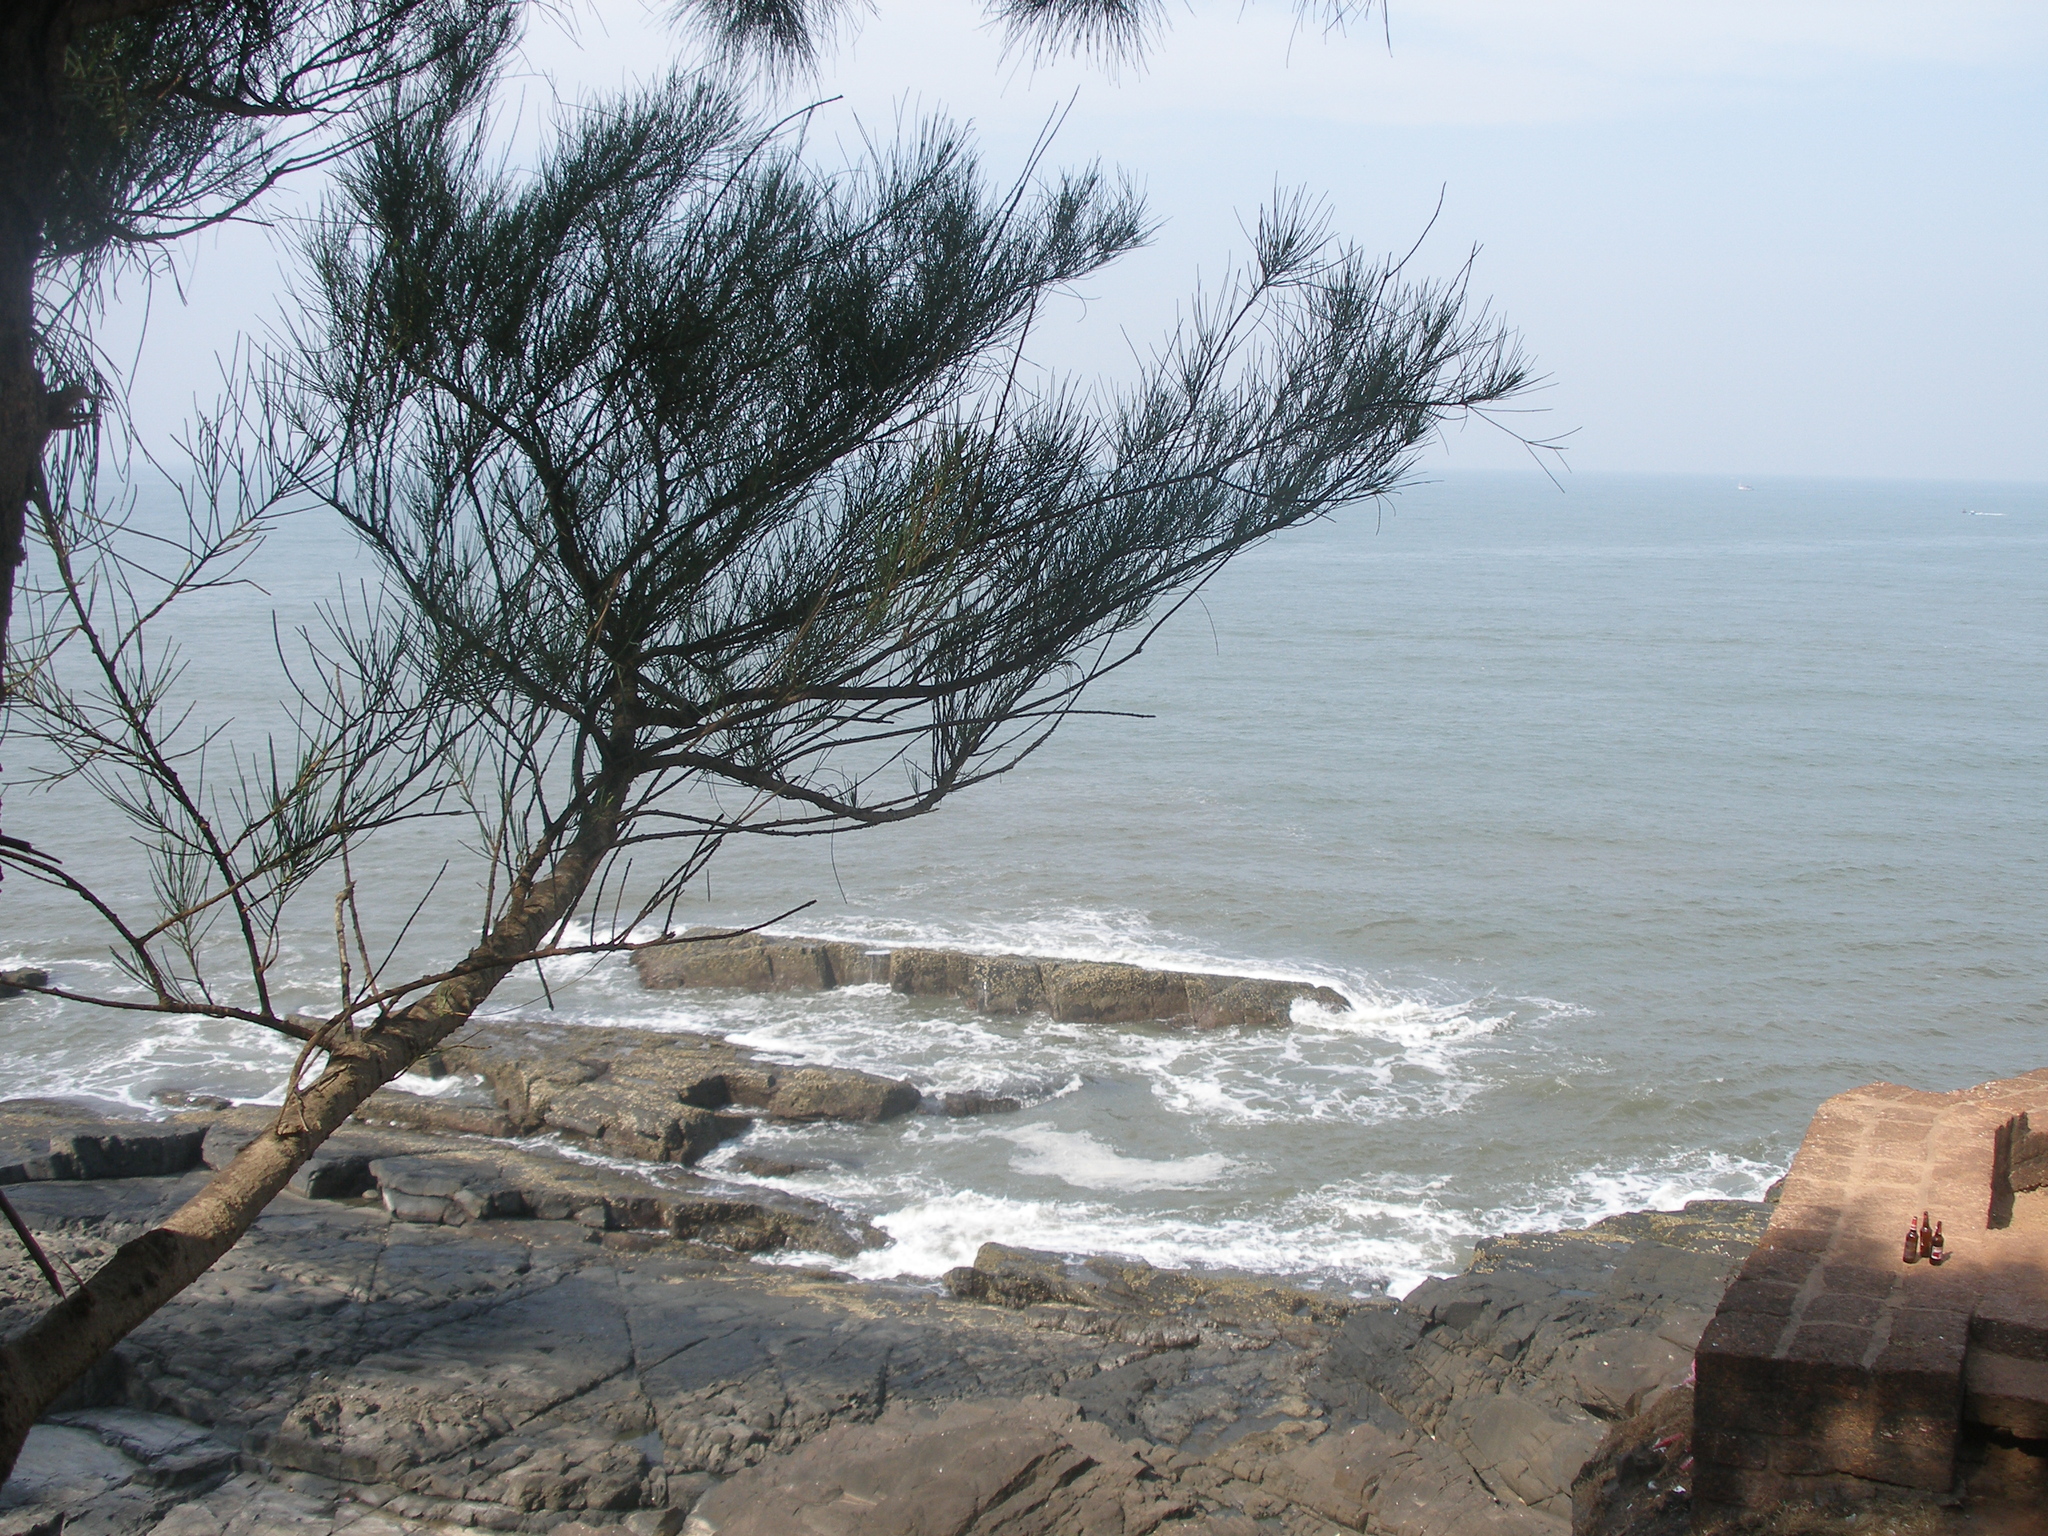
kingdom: Plantae
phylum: Tracheophyta
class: Magnoliopsida
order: Fagales
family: Casuarinaceae
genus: Casuarina
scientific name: Casuarina equisetifolia
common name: Beach sheoak
